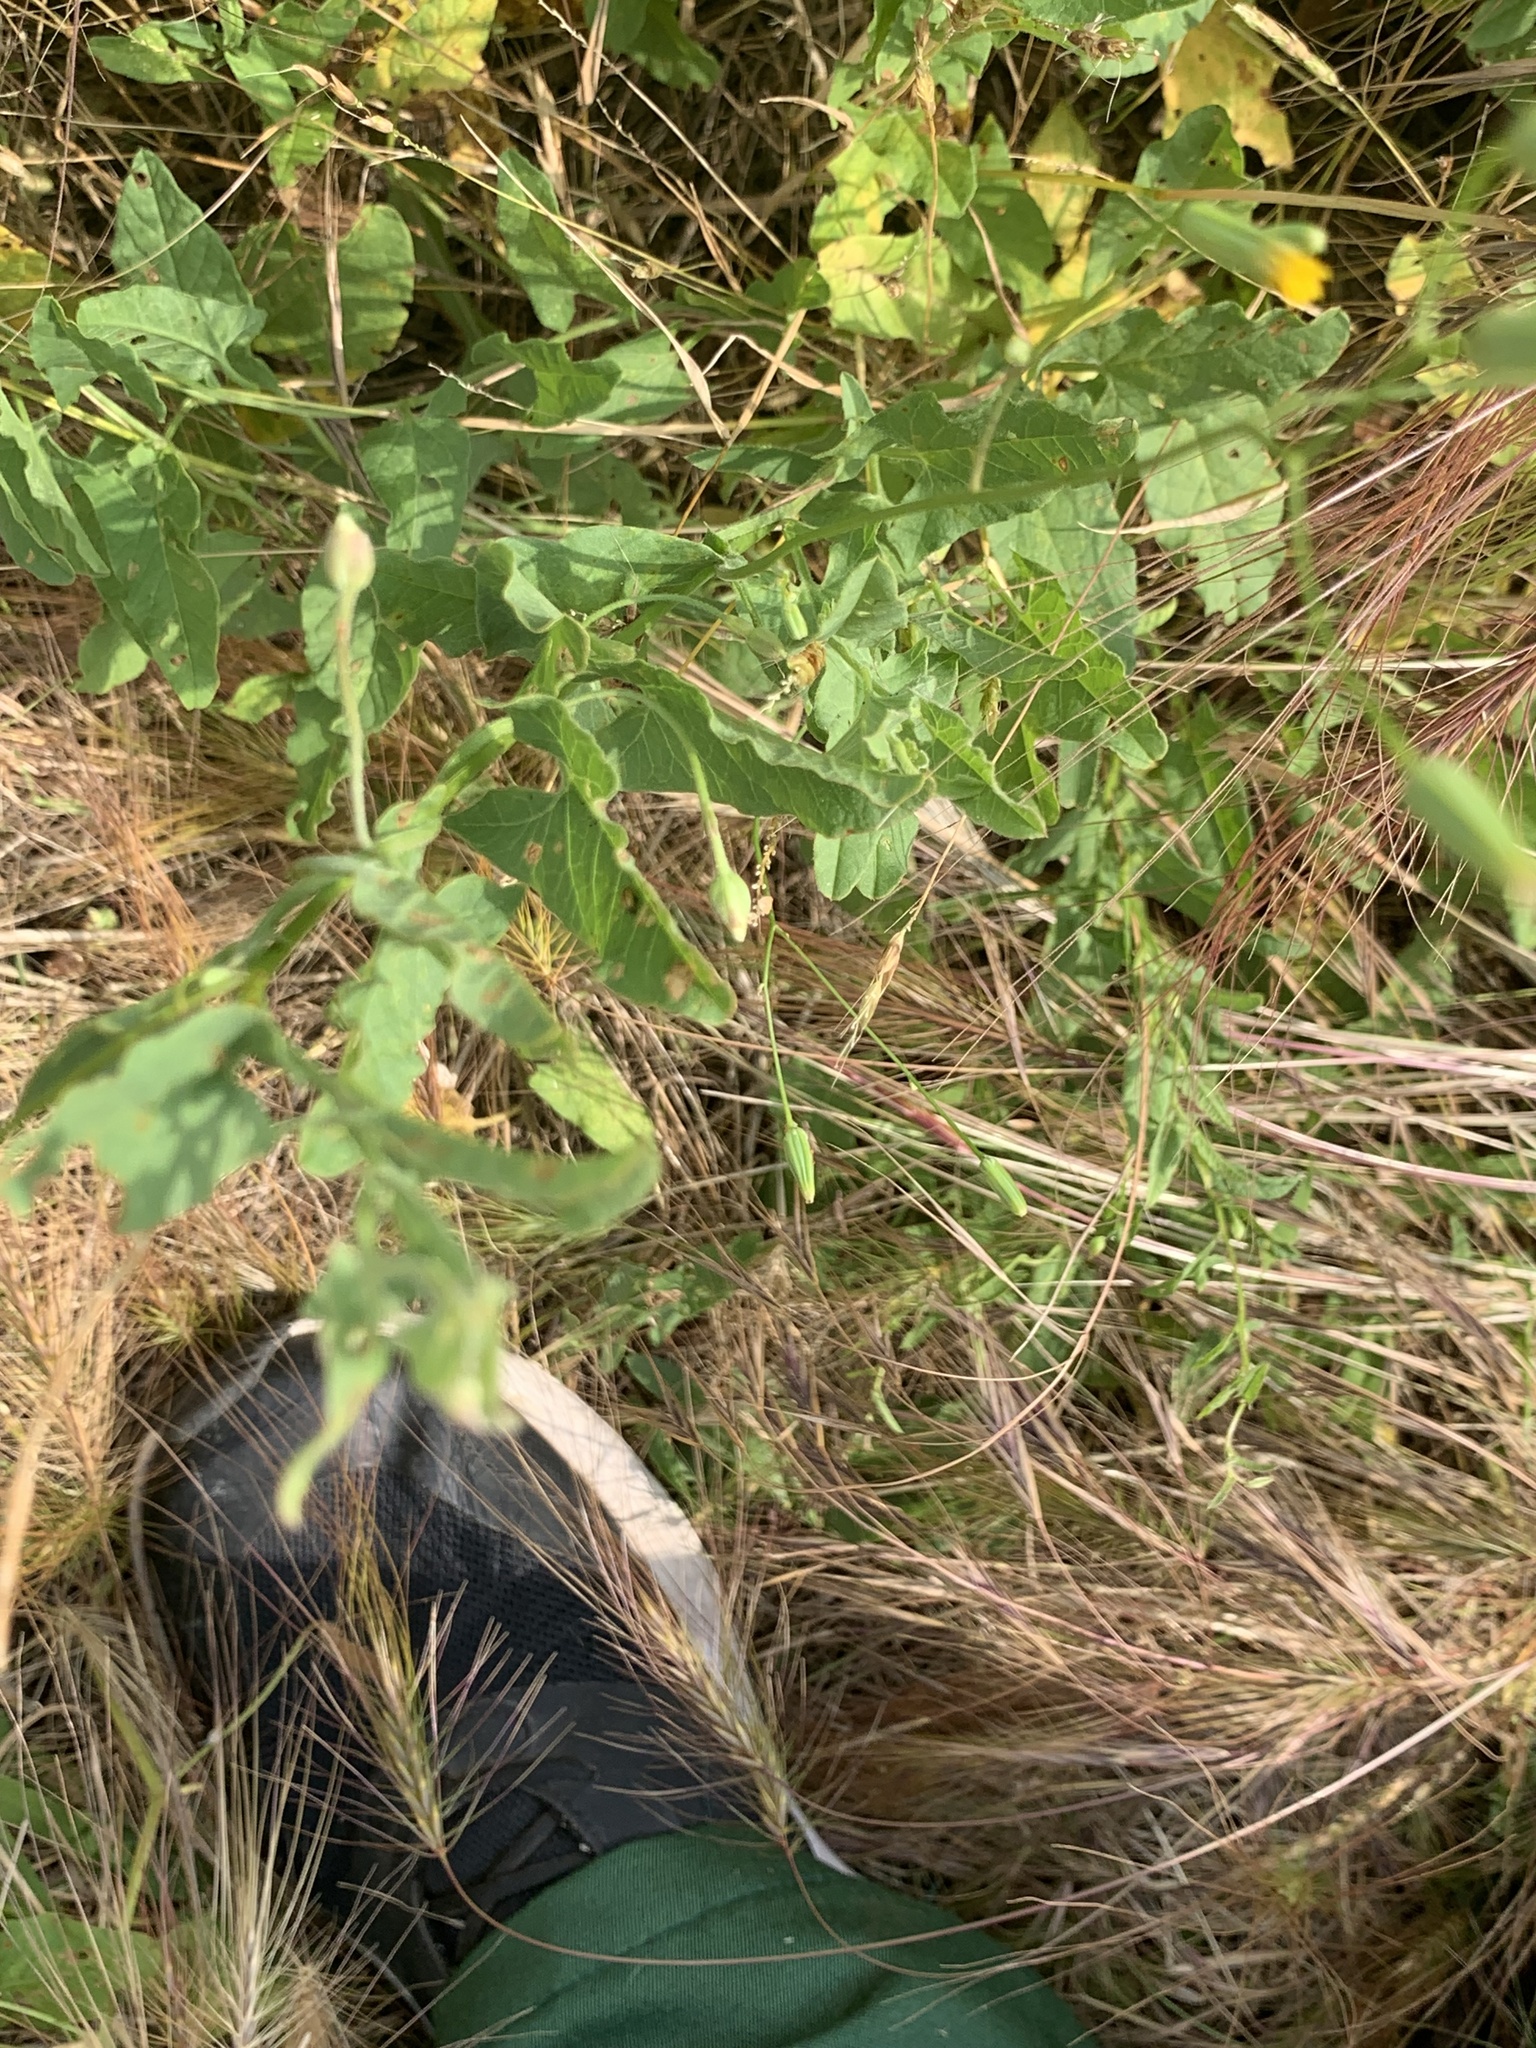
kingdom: Plantae
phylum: Tracheophyta
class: Magnoliopsida
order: Fabales
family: Fabaceae
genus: Lathyrus
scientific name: Lathyrus tuberosus
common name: Tuberous pea
